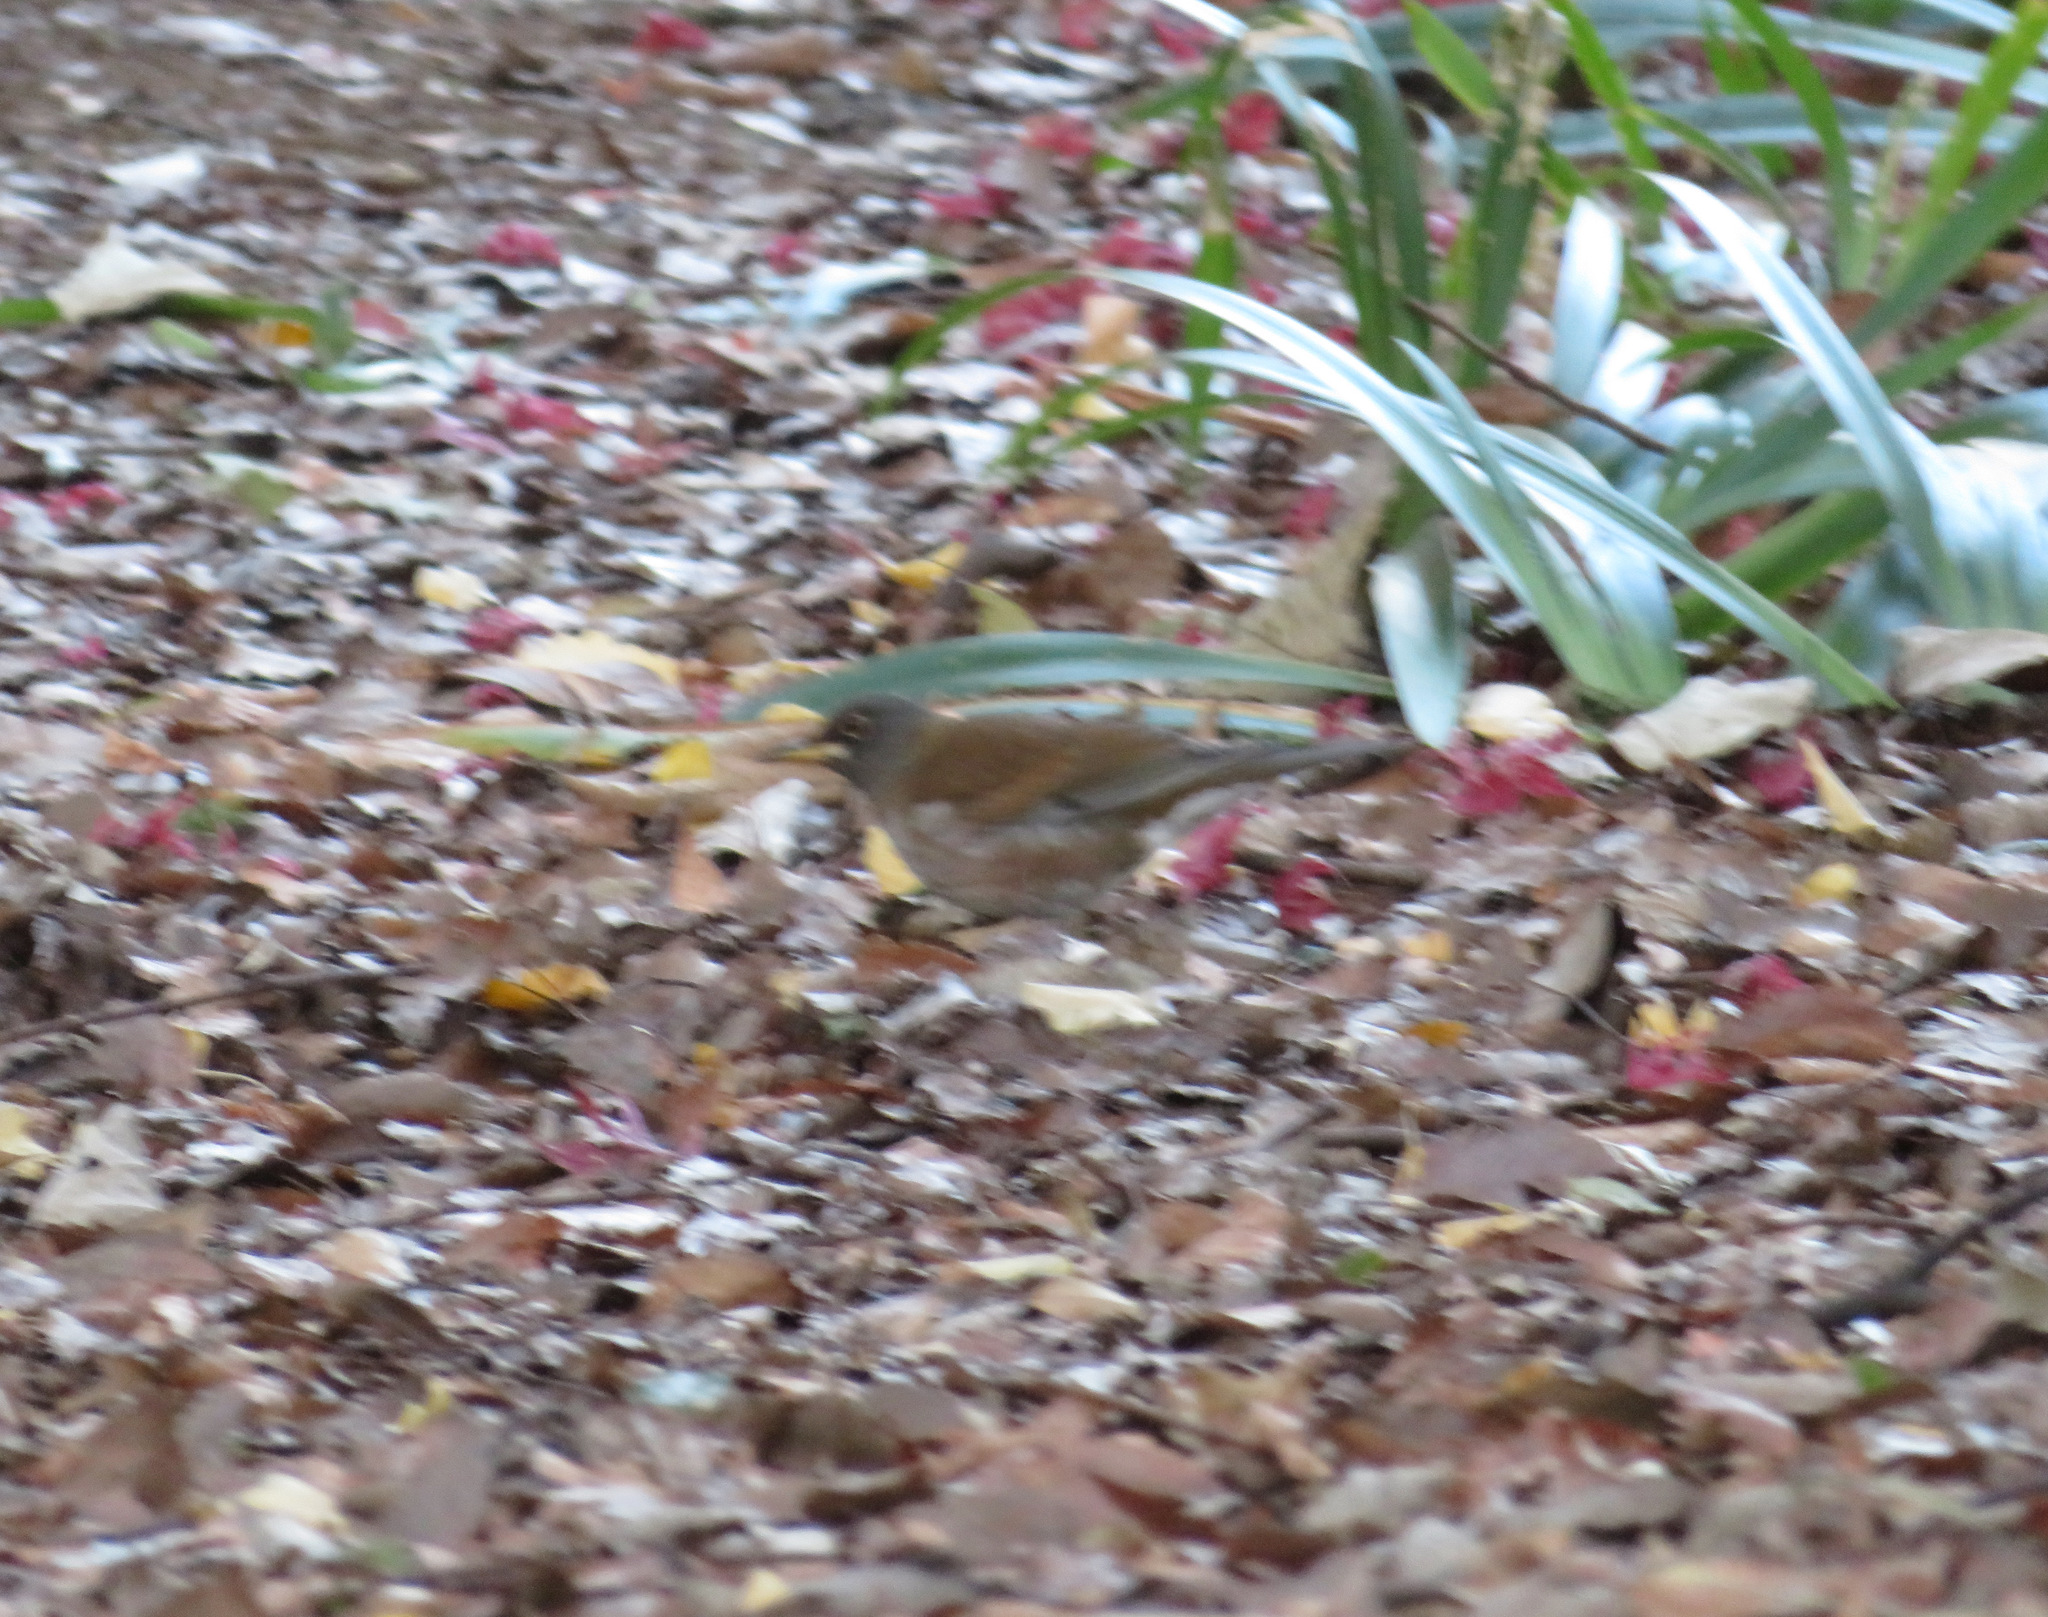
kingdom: Animalia
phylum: Chordata
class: Aves
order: Passeriformes
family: Turdidae
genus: Turdus
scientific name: Turdus pallidus
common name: Pale thrush
